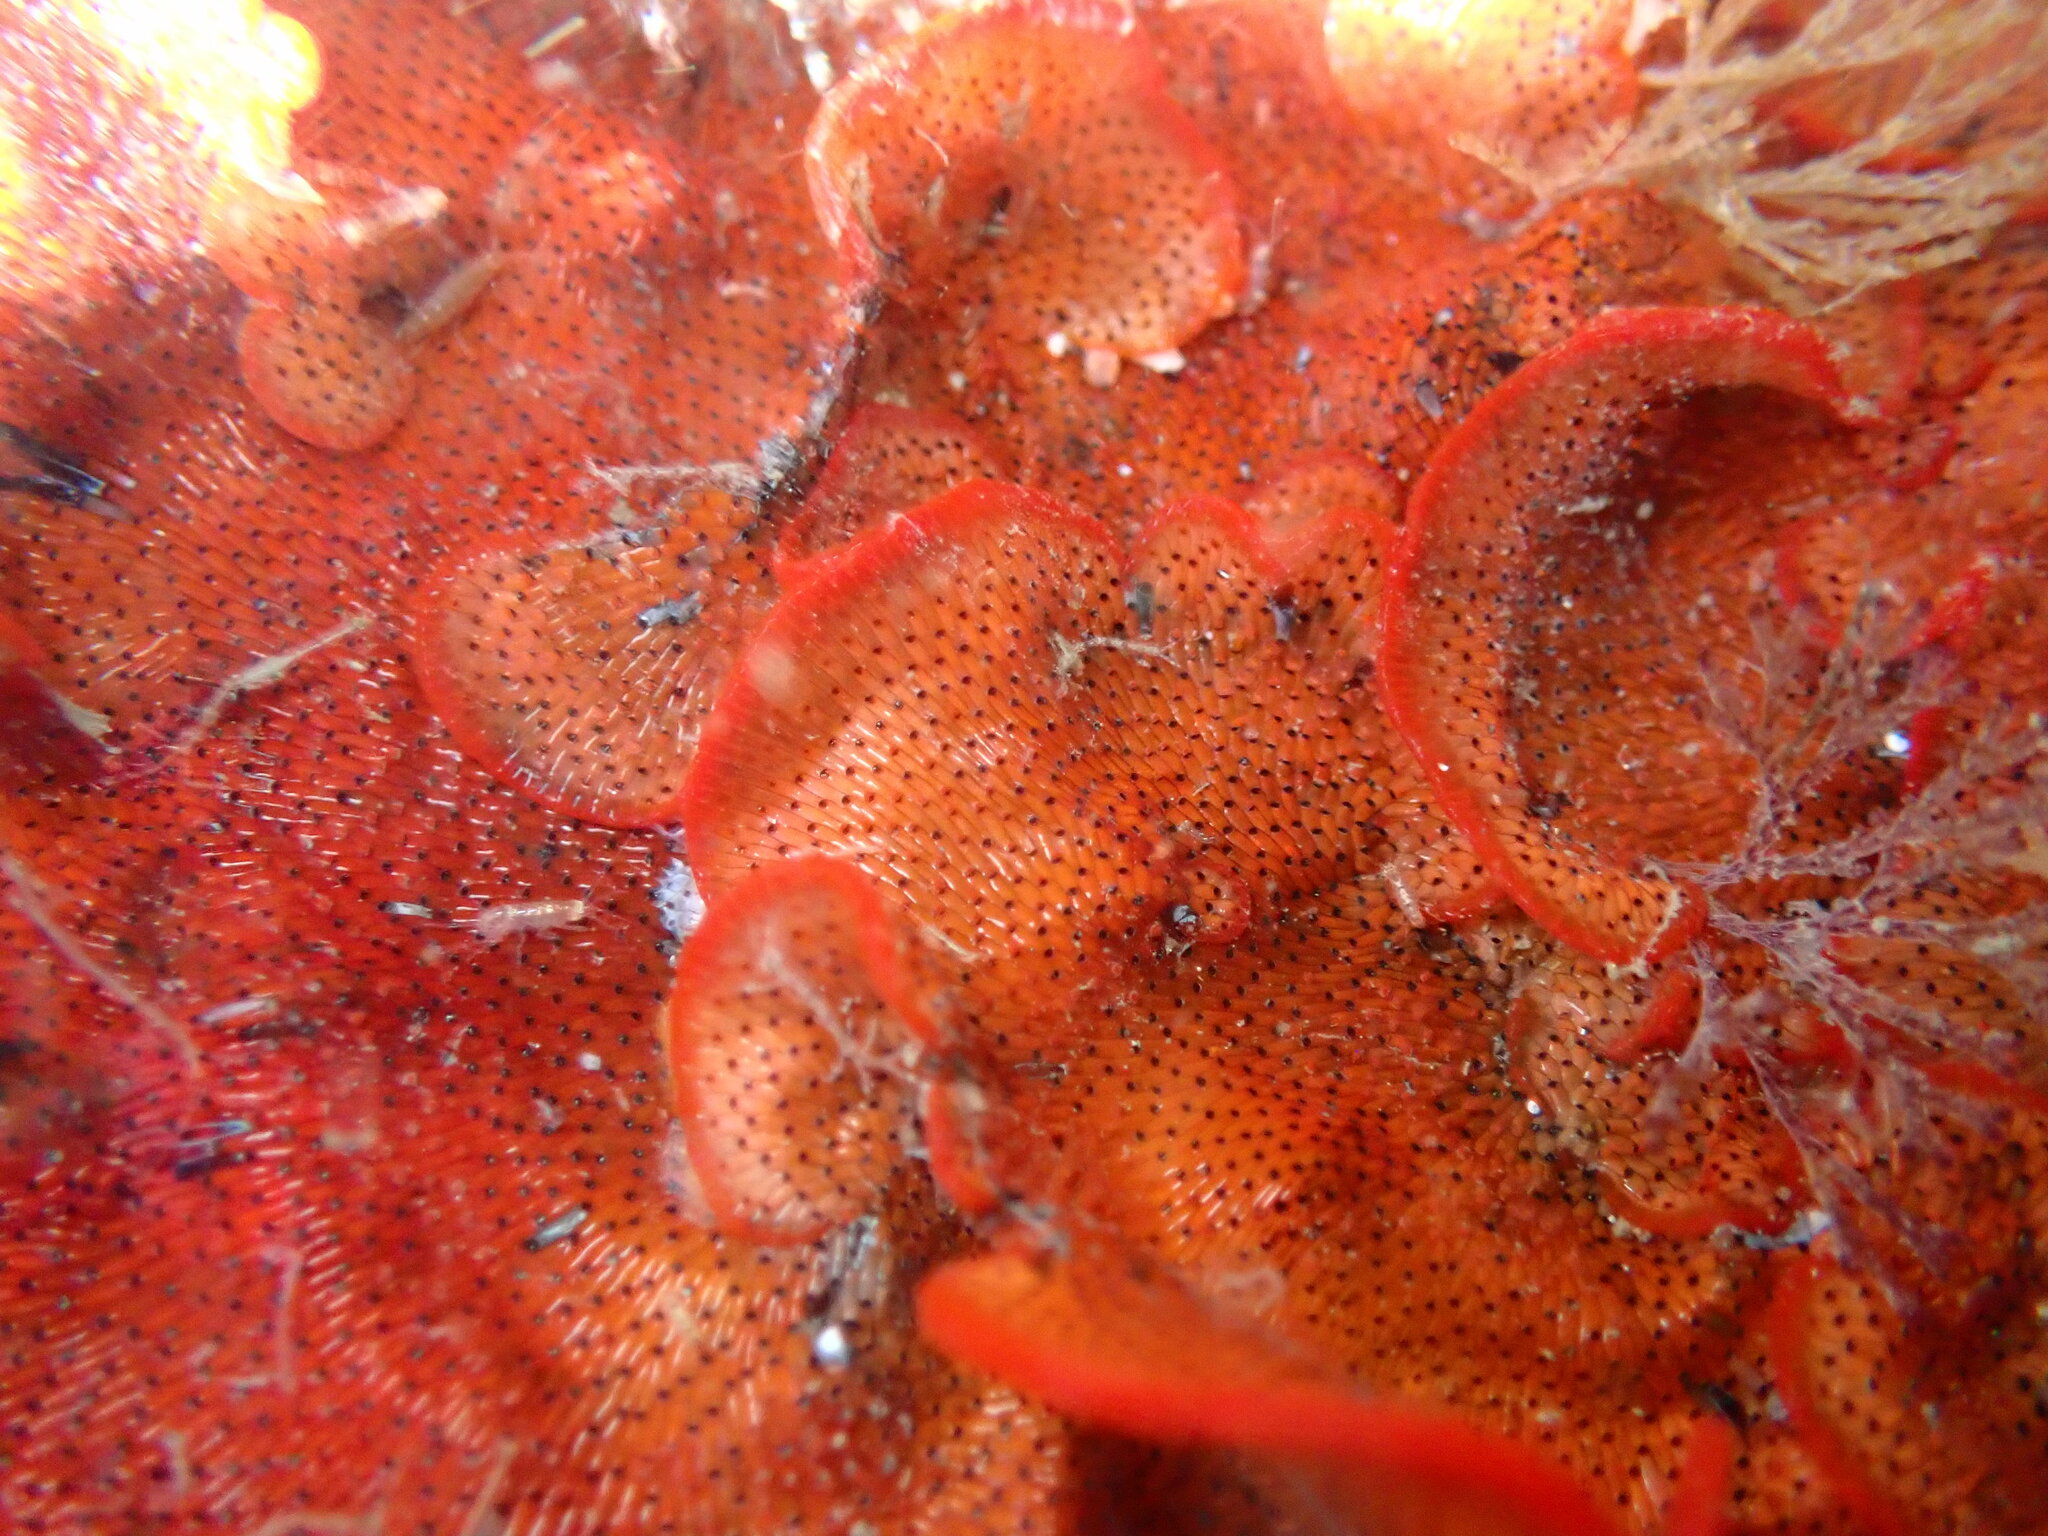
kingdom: Animalia
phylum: Bryozoa
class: Gymnolaemata
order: Cheilostomatida
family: Watersiporidae
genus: Watersipora
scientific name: Watersipora subtorquata
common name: Bryozoan
